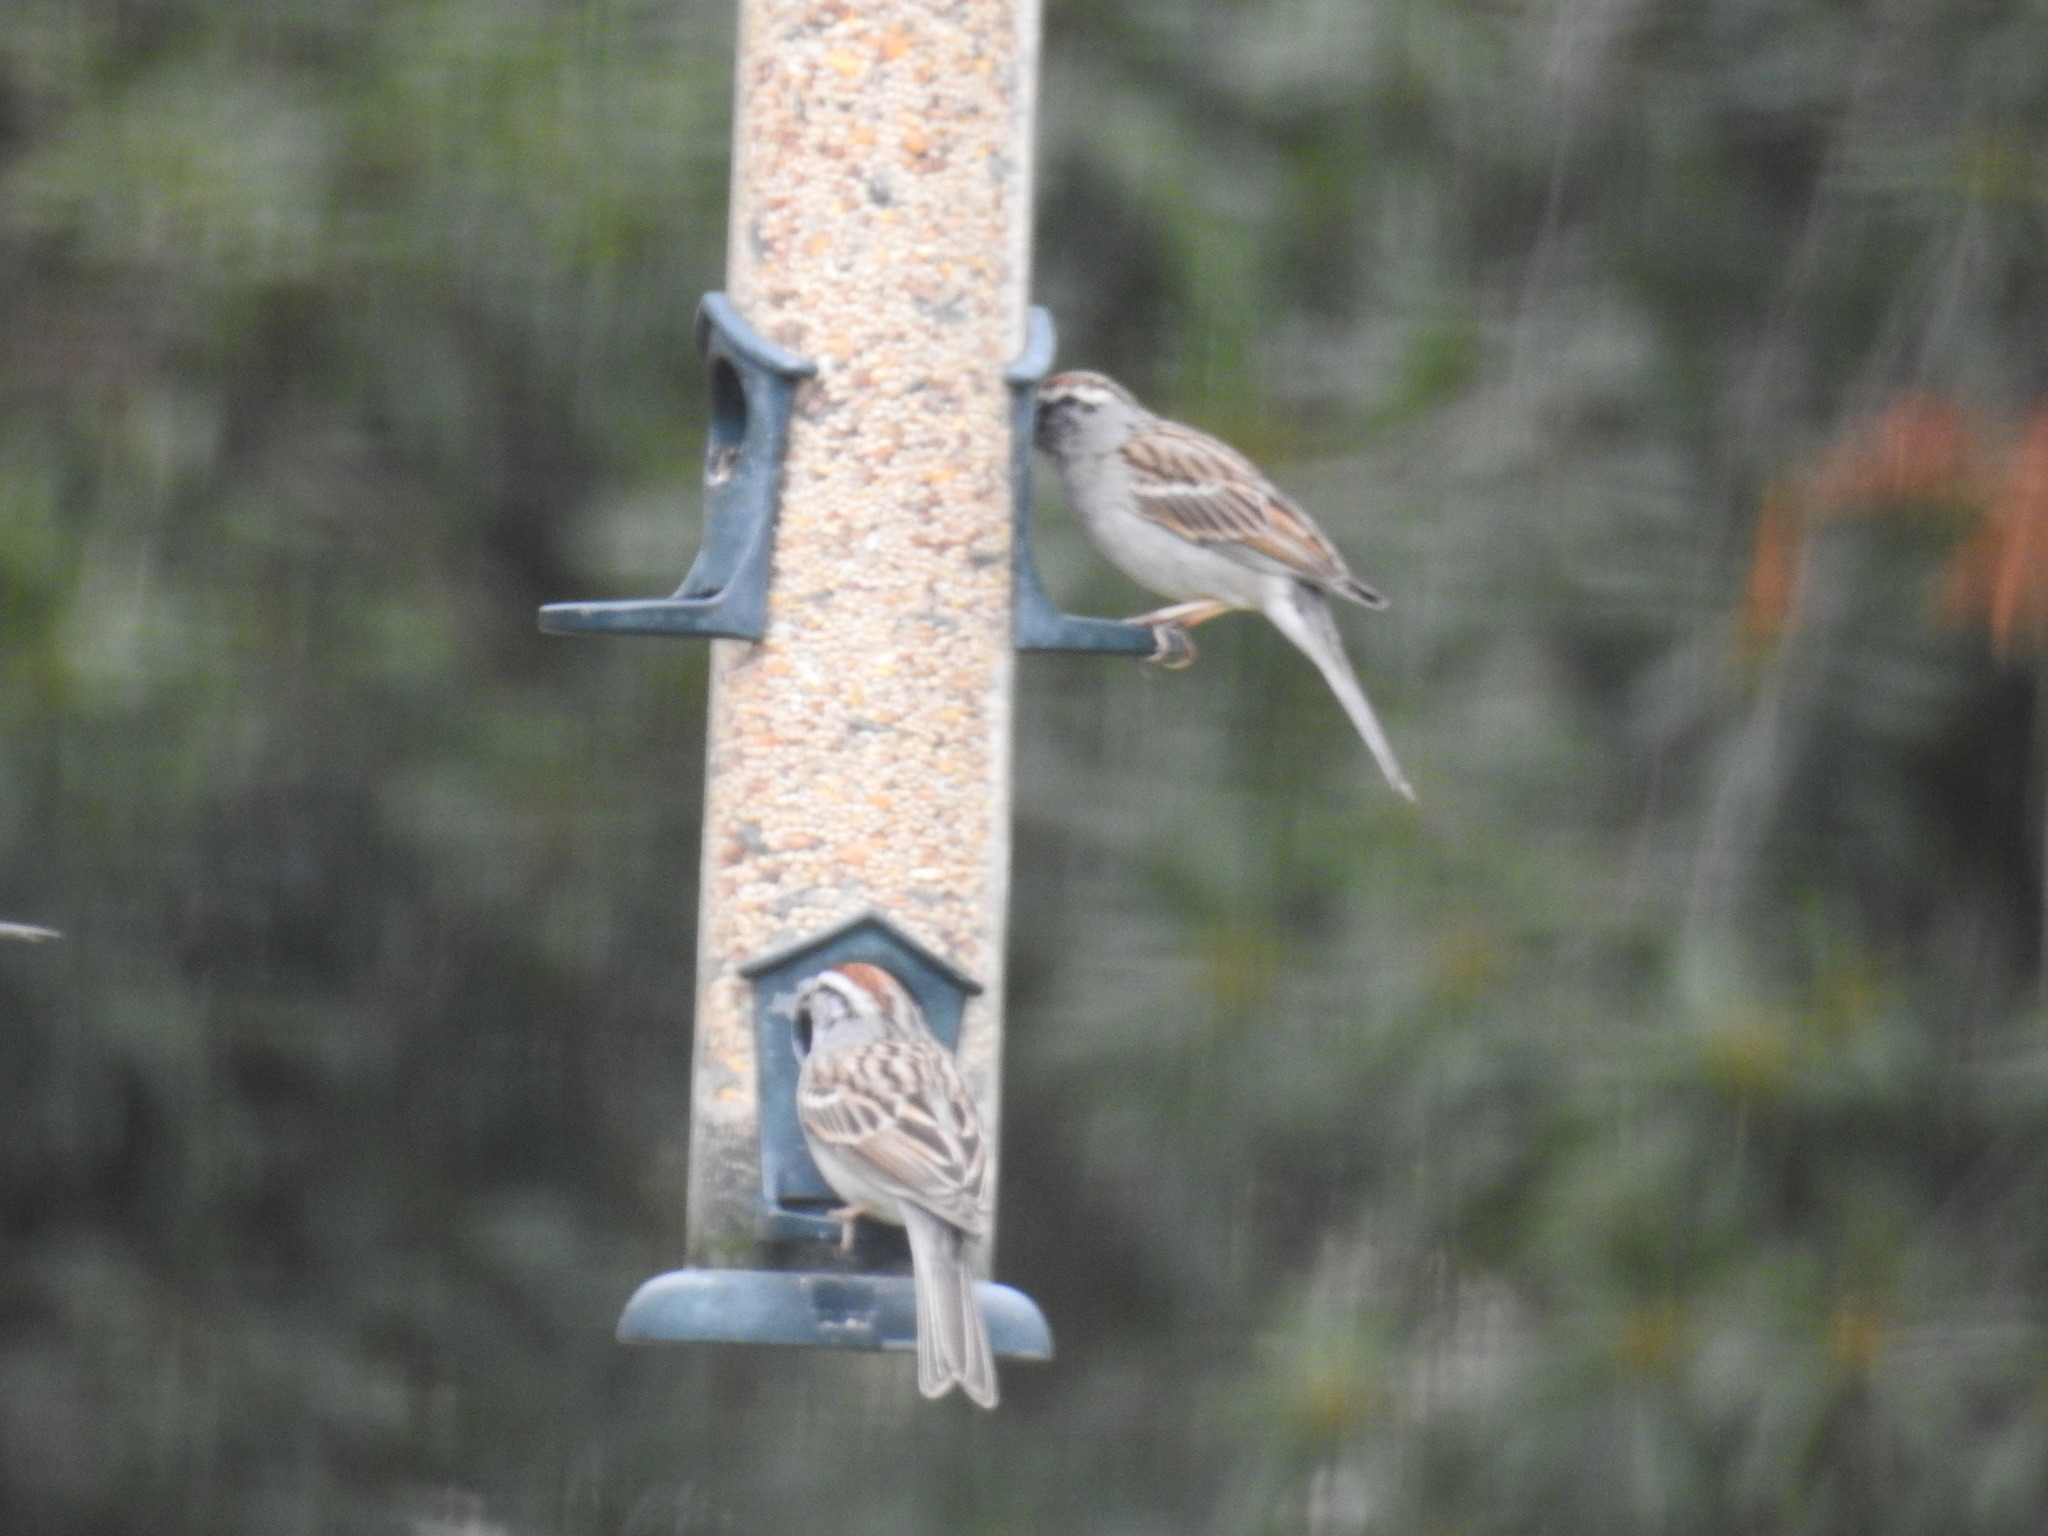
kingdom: Animalia
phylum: Chordata
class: Aves
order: Passeriformes
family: Passerellidae
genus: Spizella
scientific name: Spizella passerina
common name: Chipping sparrow
